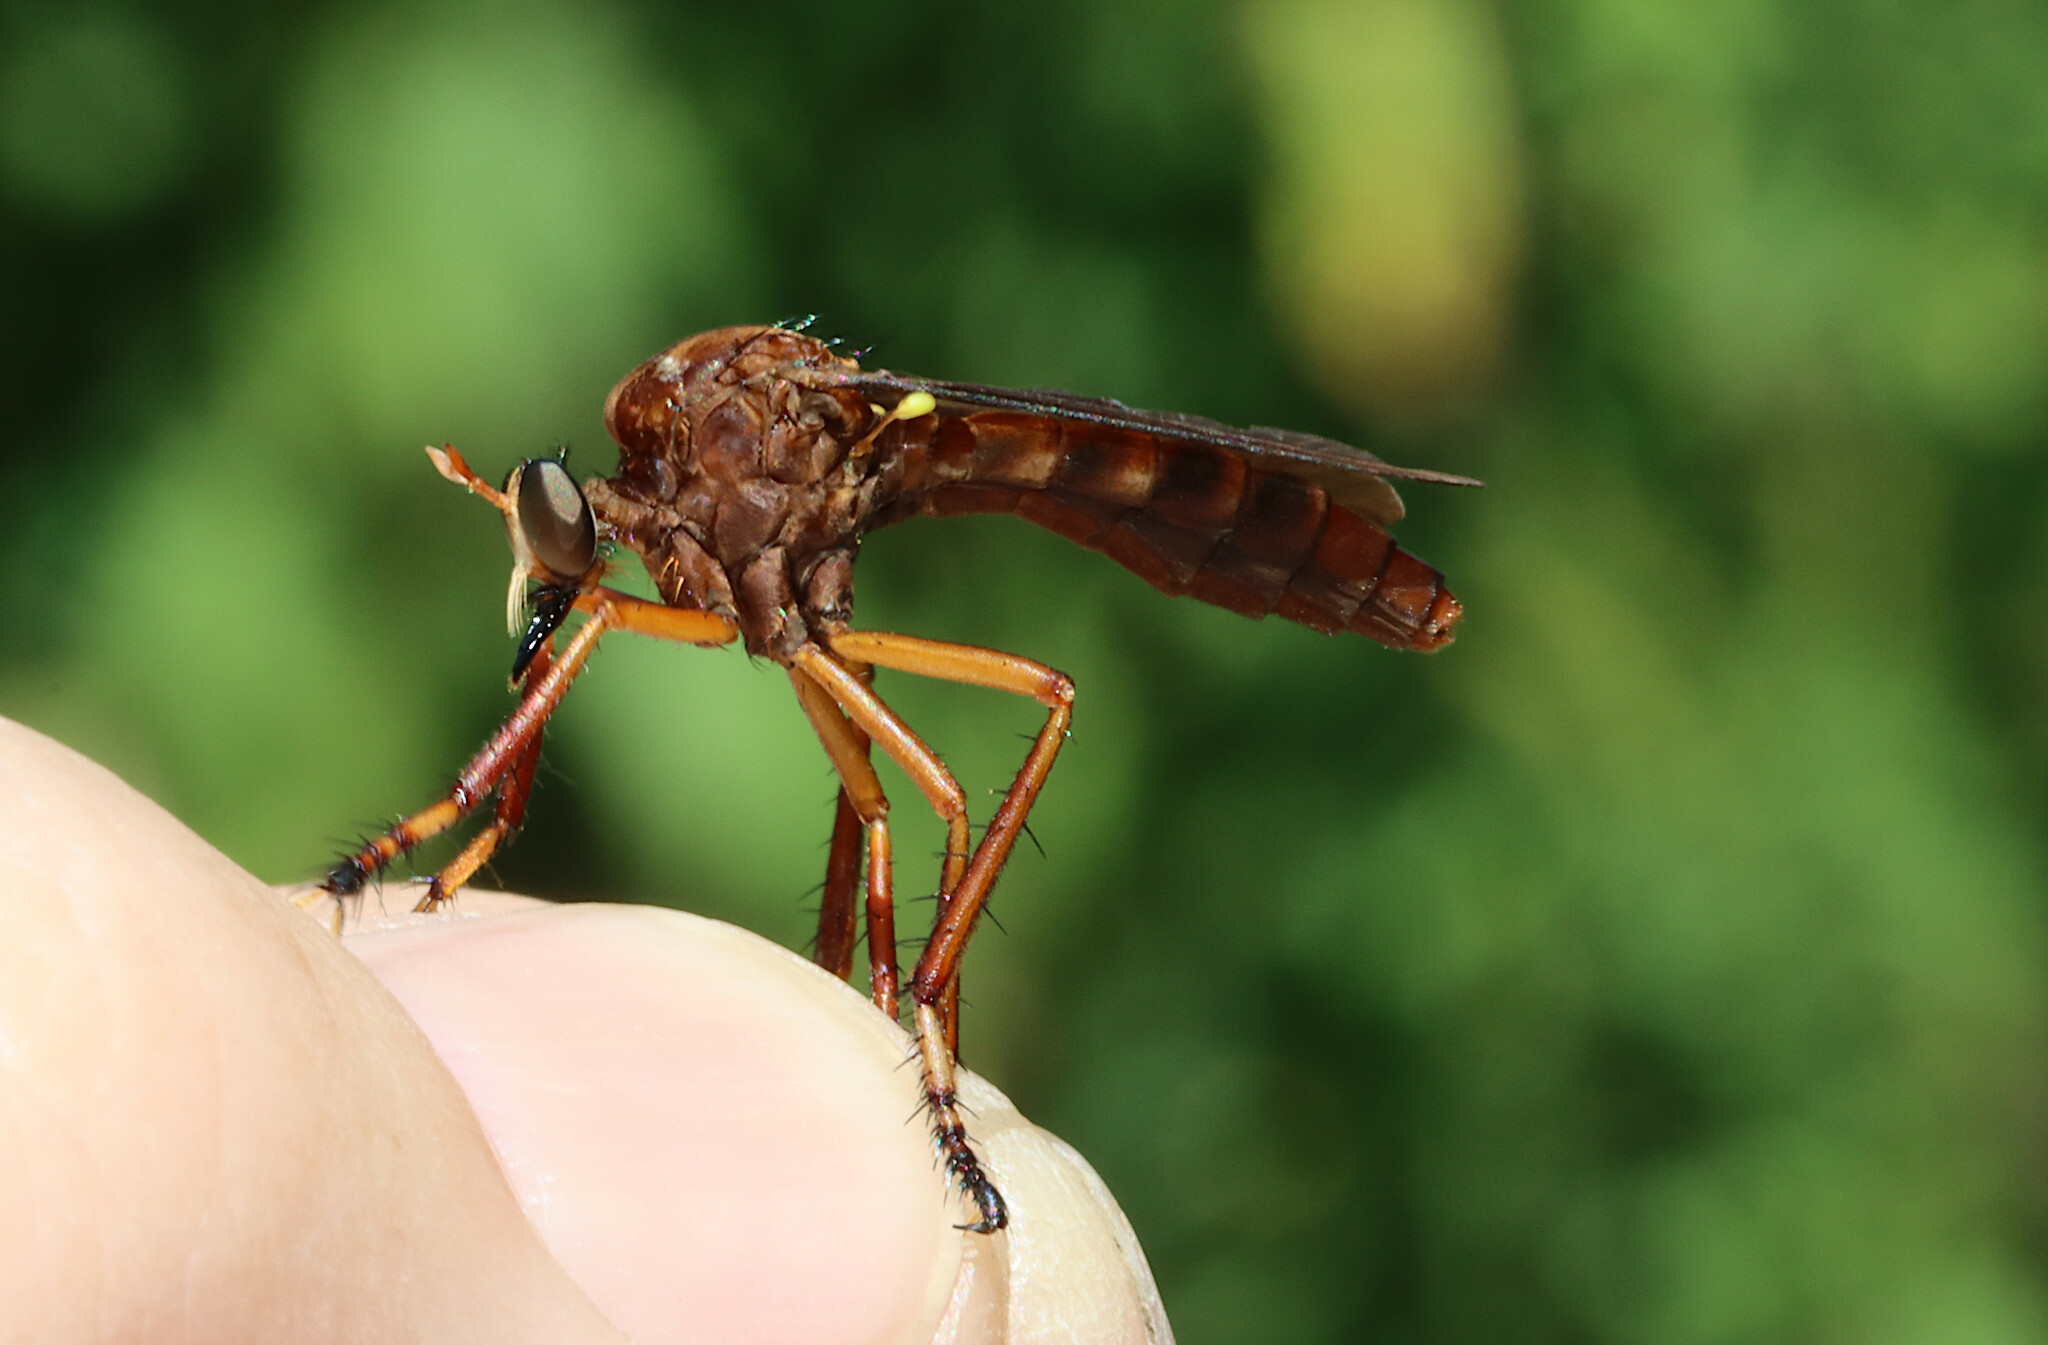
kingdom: Animalia
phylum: Arthropoda
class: Insecta
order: Diptera
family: Asilidae
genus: Diogmites
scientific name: Diogmites platypterus
